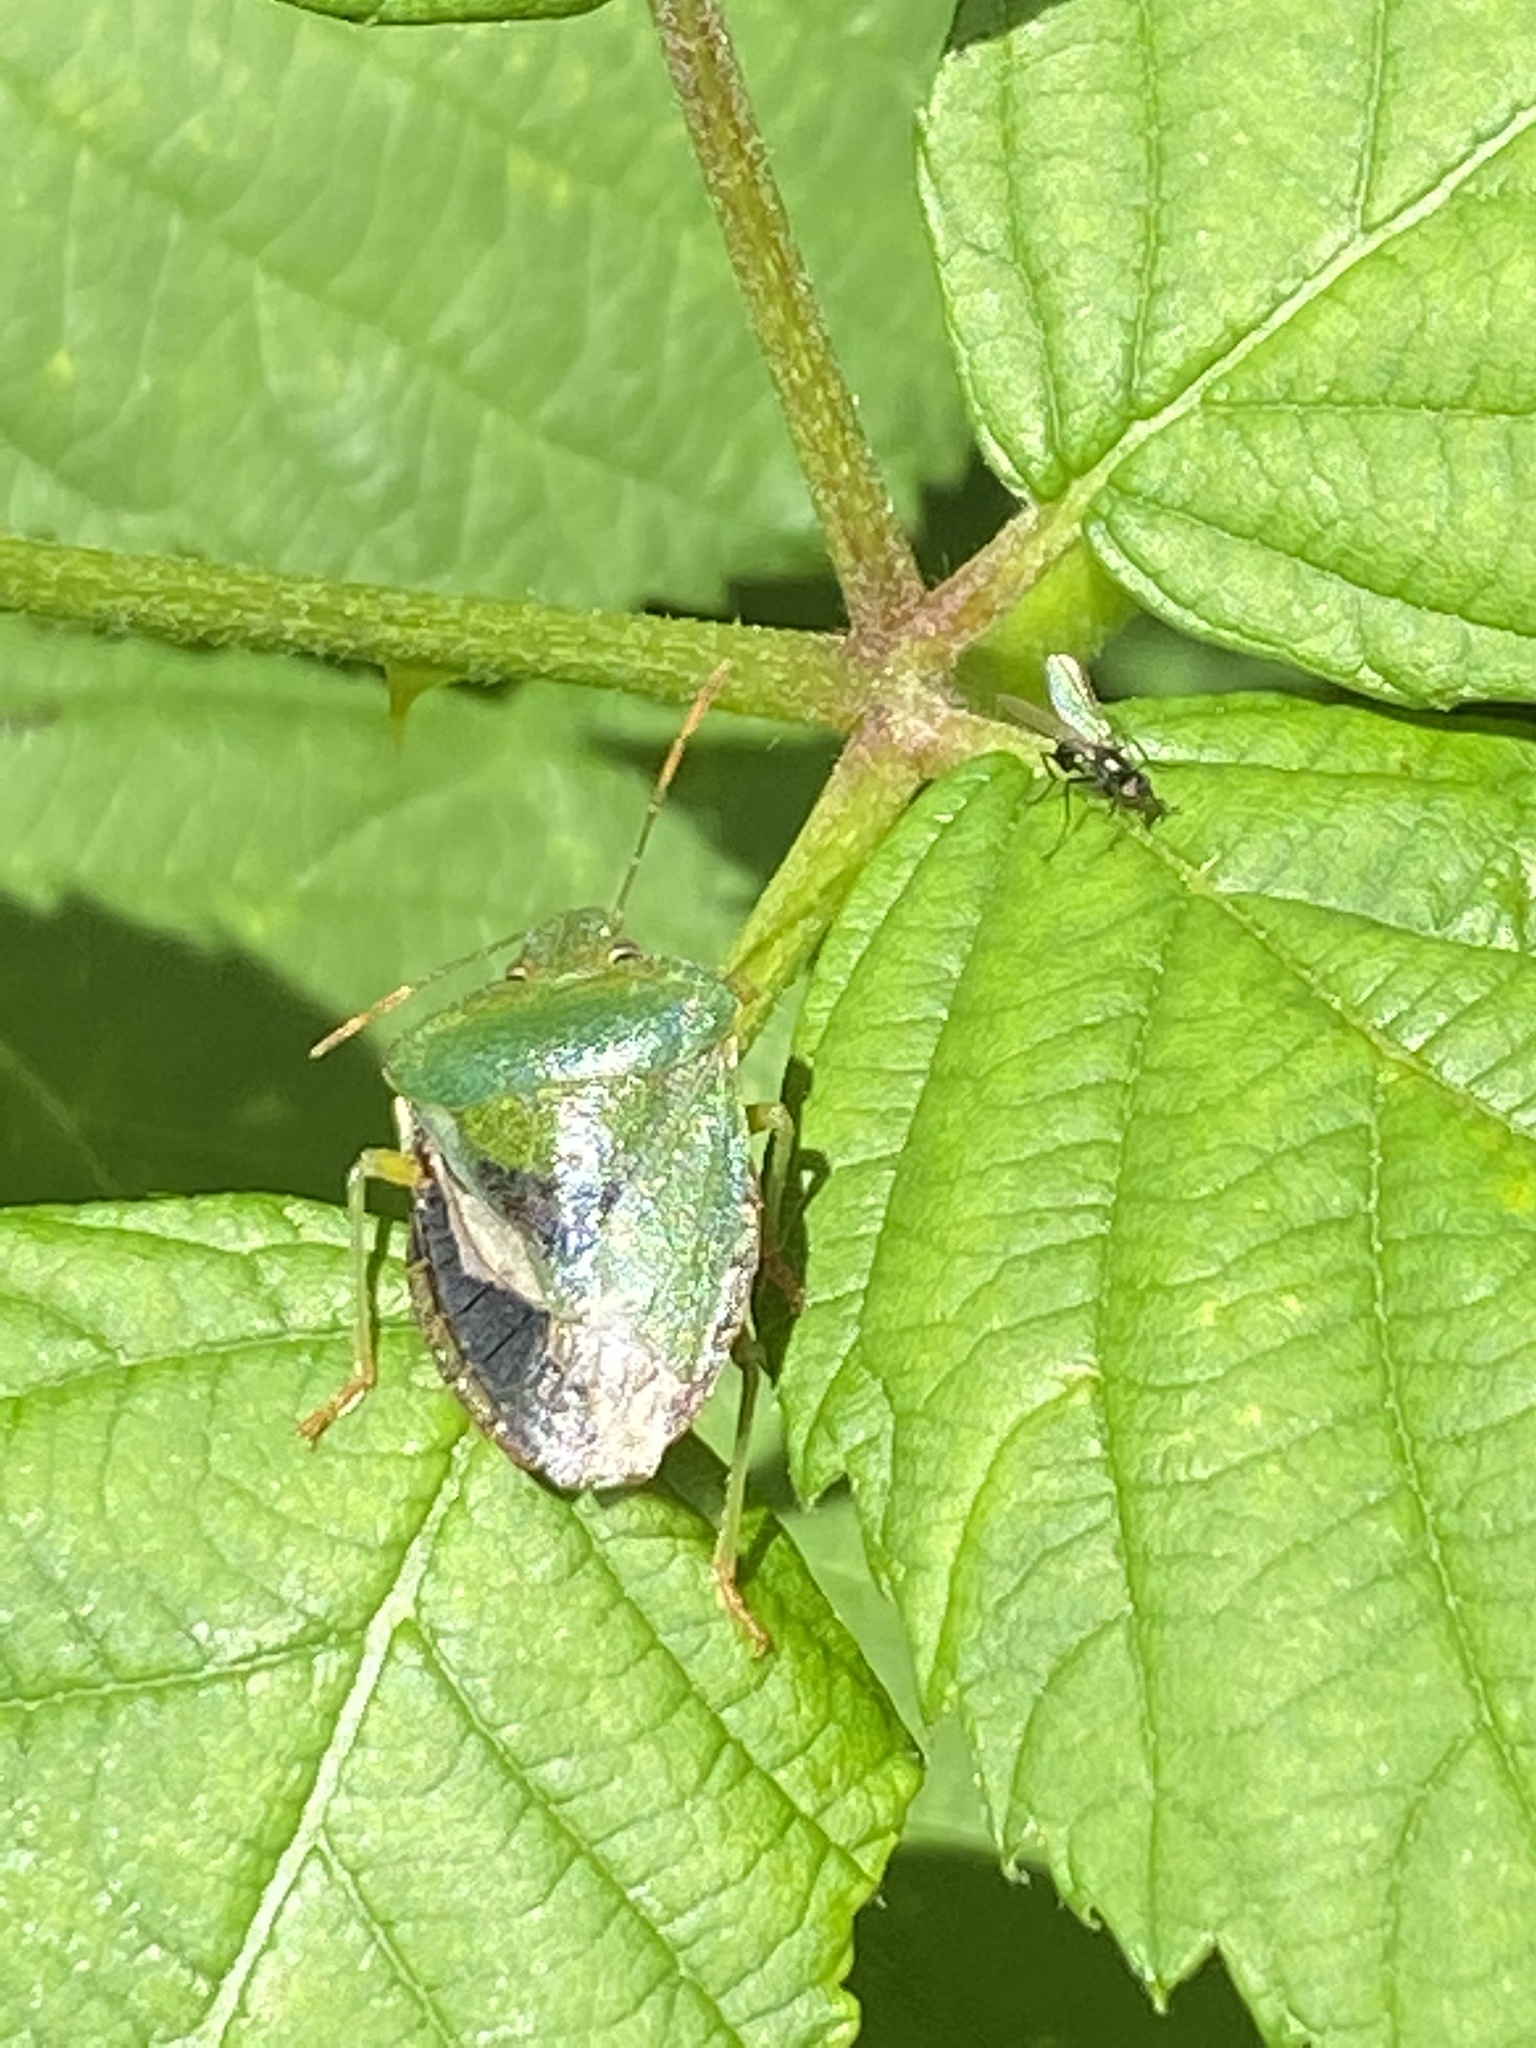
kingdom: Animalia
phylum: Arthropoda
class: Insecta
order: Hemiptera
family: Pentatomidae
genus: Palomena
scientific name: Palomena prasina
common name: Green shieldbug
